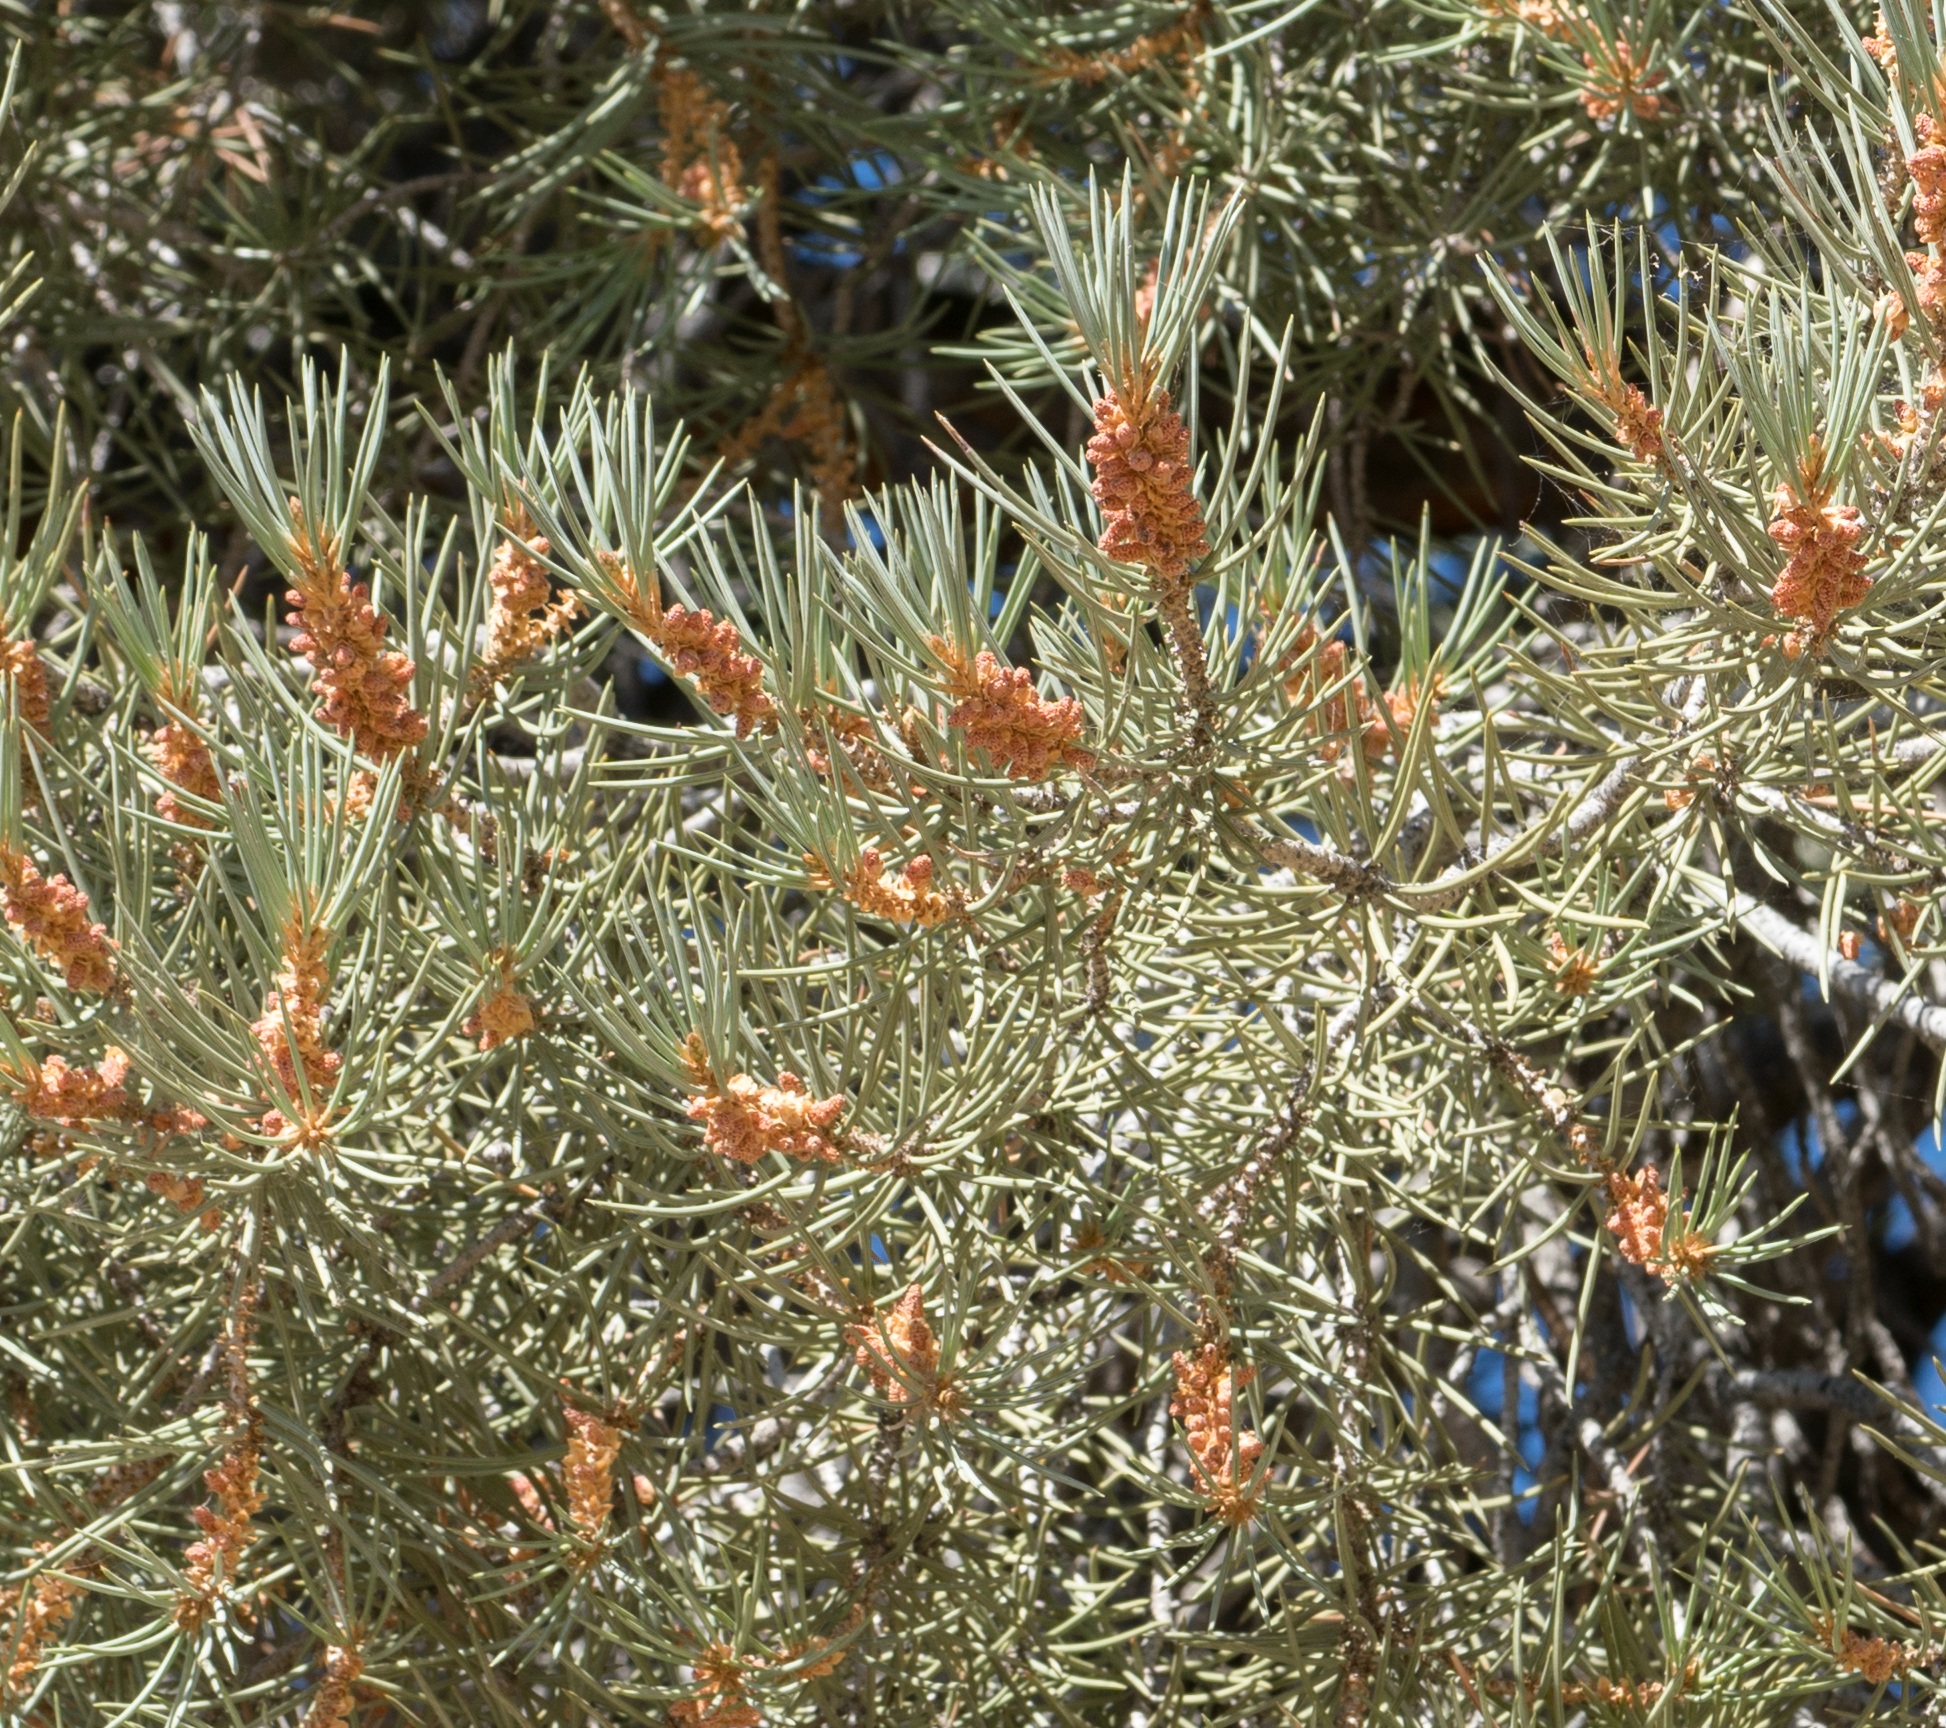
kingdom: Plantae
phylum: Tracheophyta
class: Pinopsida
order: Pinales
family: Pinaceae
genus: Pinus
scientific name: Pinus monophylla
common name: One-leaved nut pine
